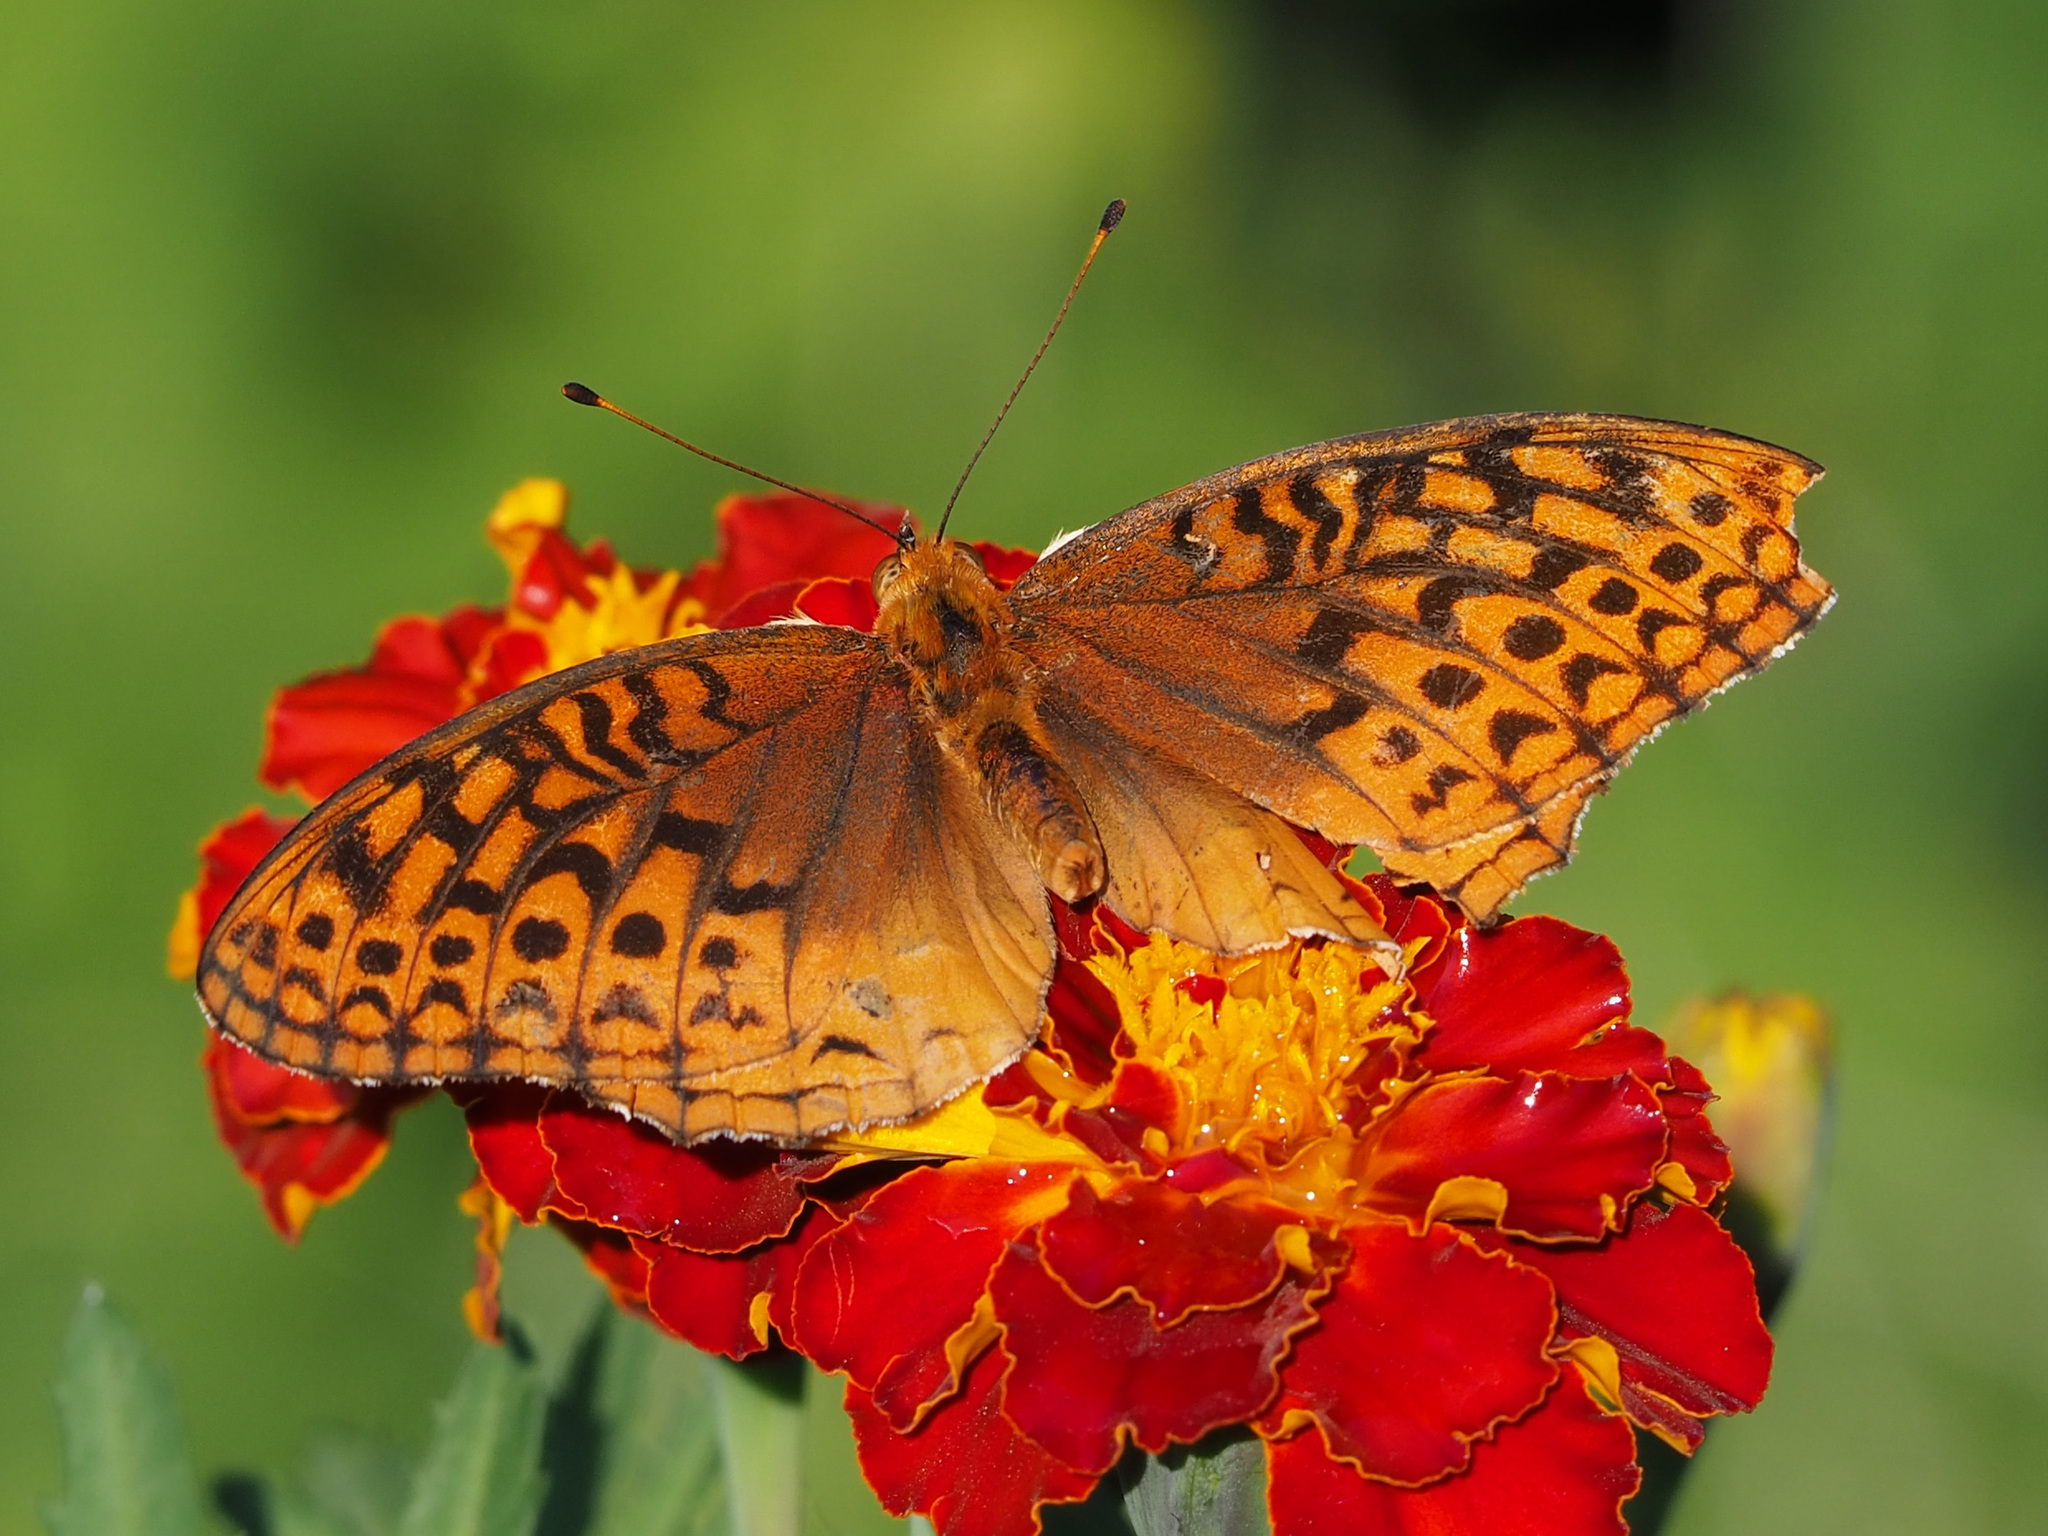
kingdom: Animalia
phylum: Arthropoda
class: Insecta
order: Lepidoptera
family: Nymphalidae
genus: Speyeria
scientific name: Speyeria cybele
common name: Great spangled fritillary
